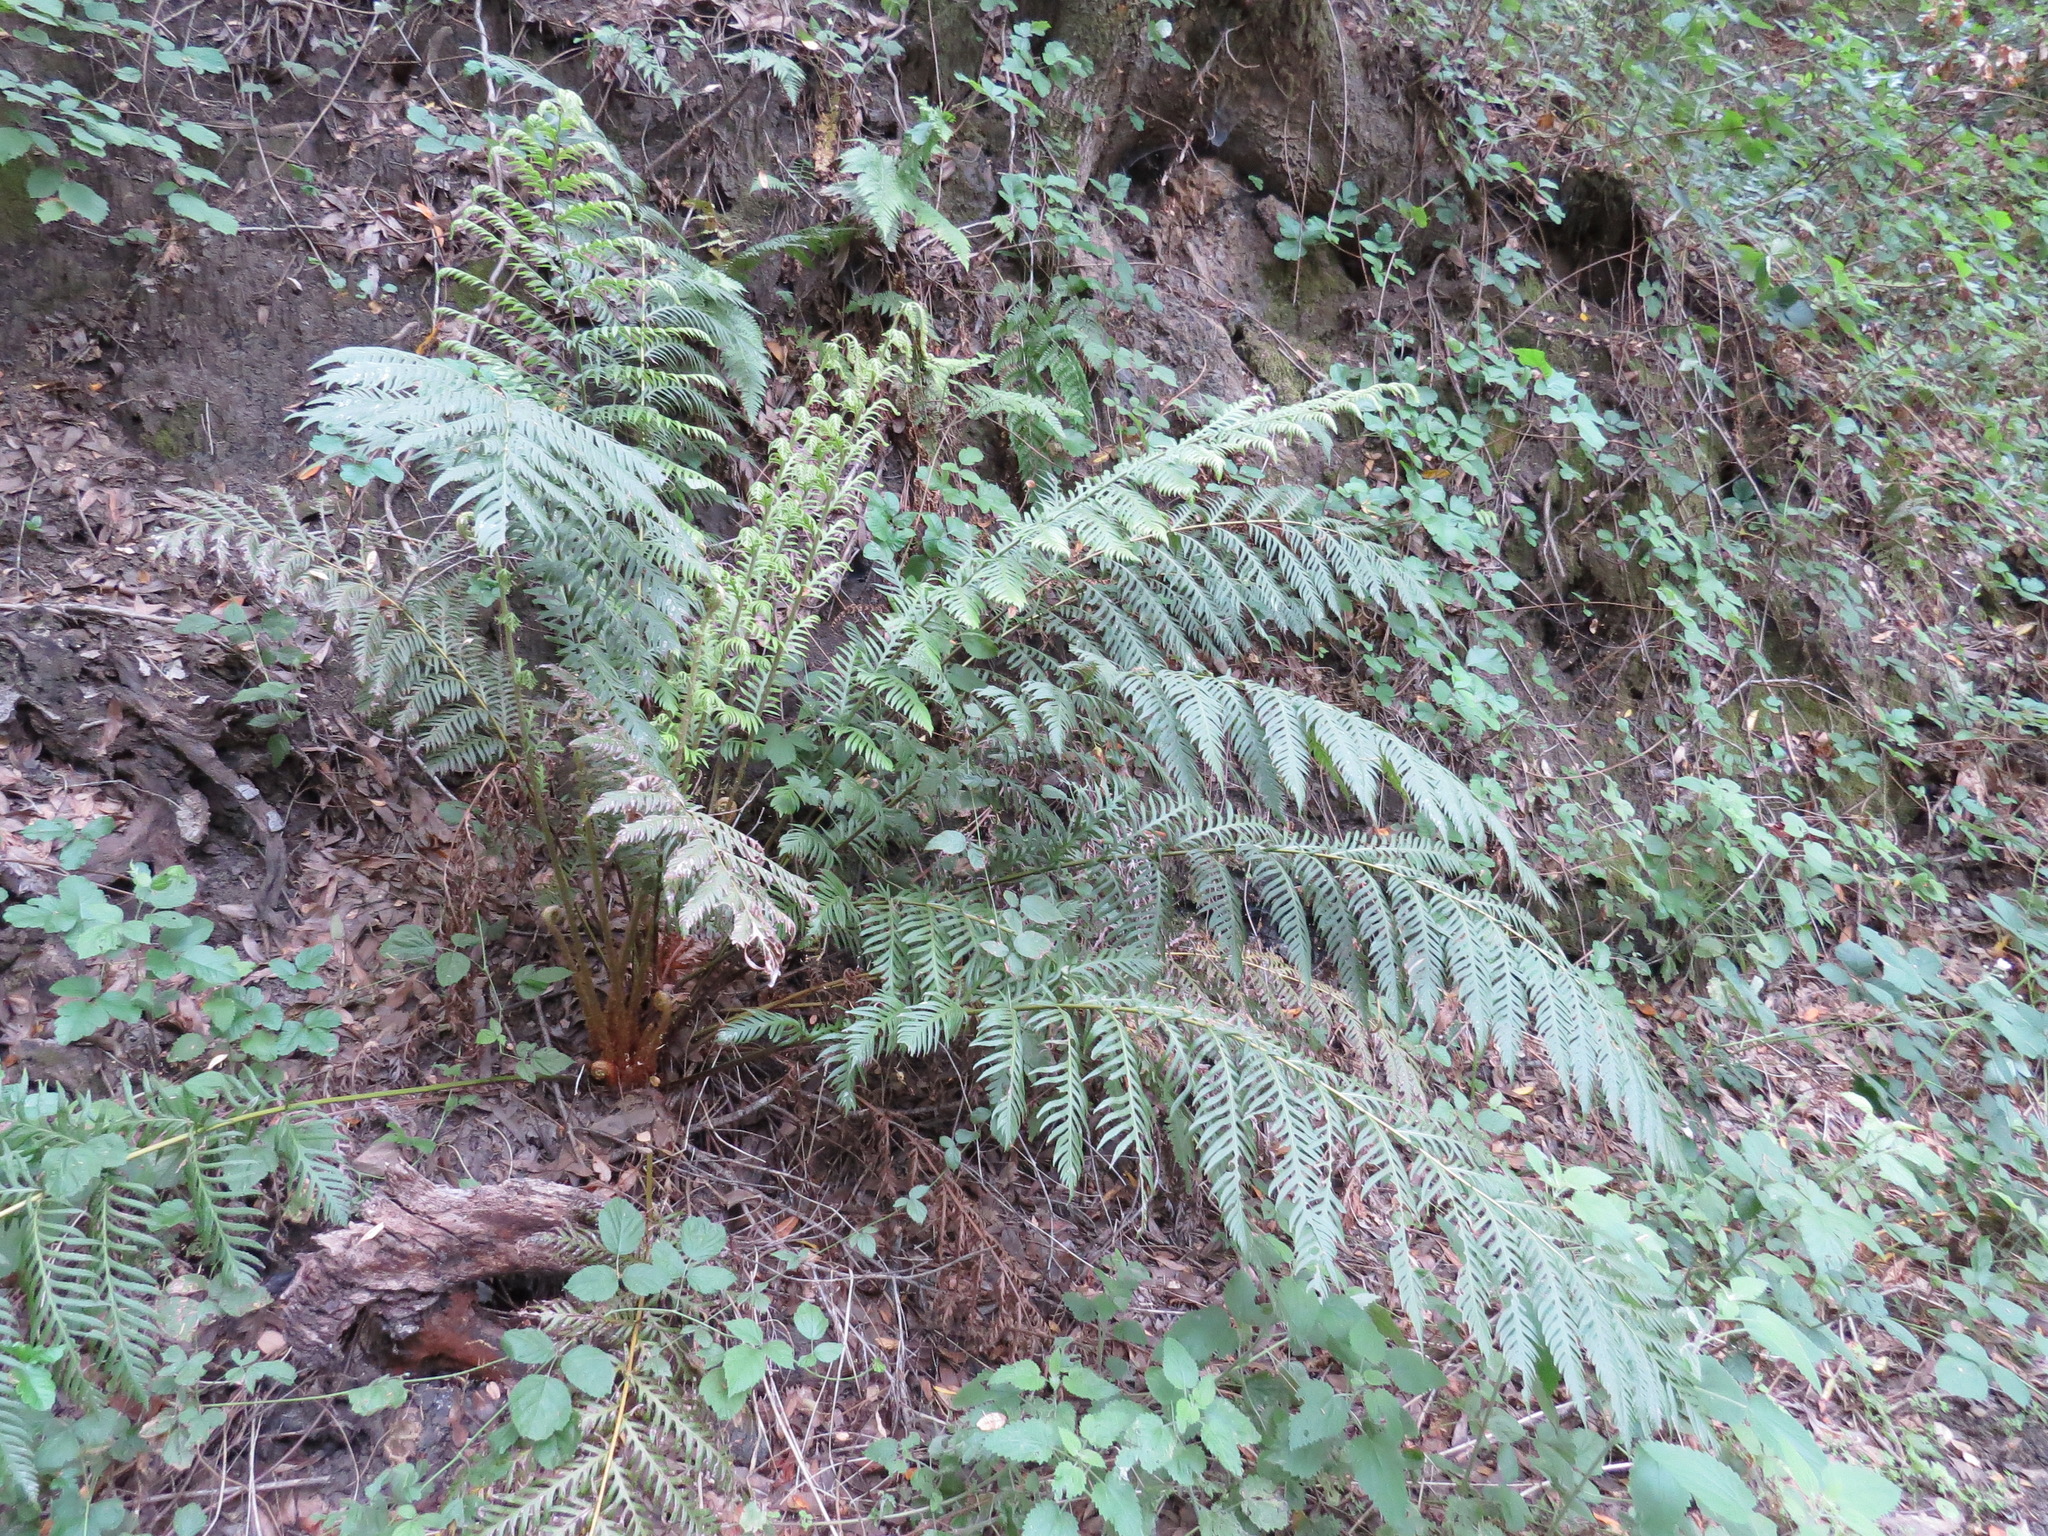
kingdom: Plantae
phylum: Tracheophyta
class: Polypodiopsida
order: Polypodiales
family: Blechnaceae
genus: Woodwardia
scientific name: Woodwardia fimbriata
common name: Giant chain fern
